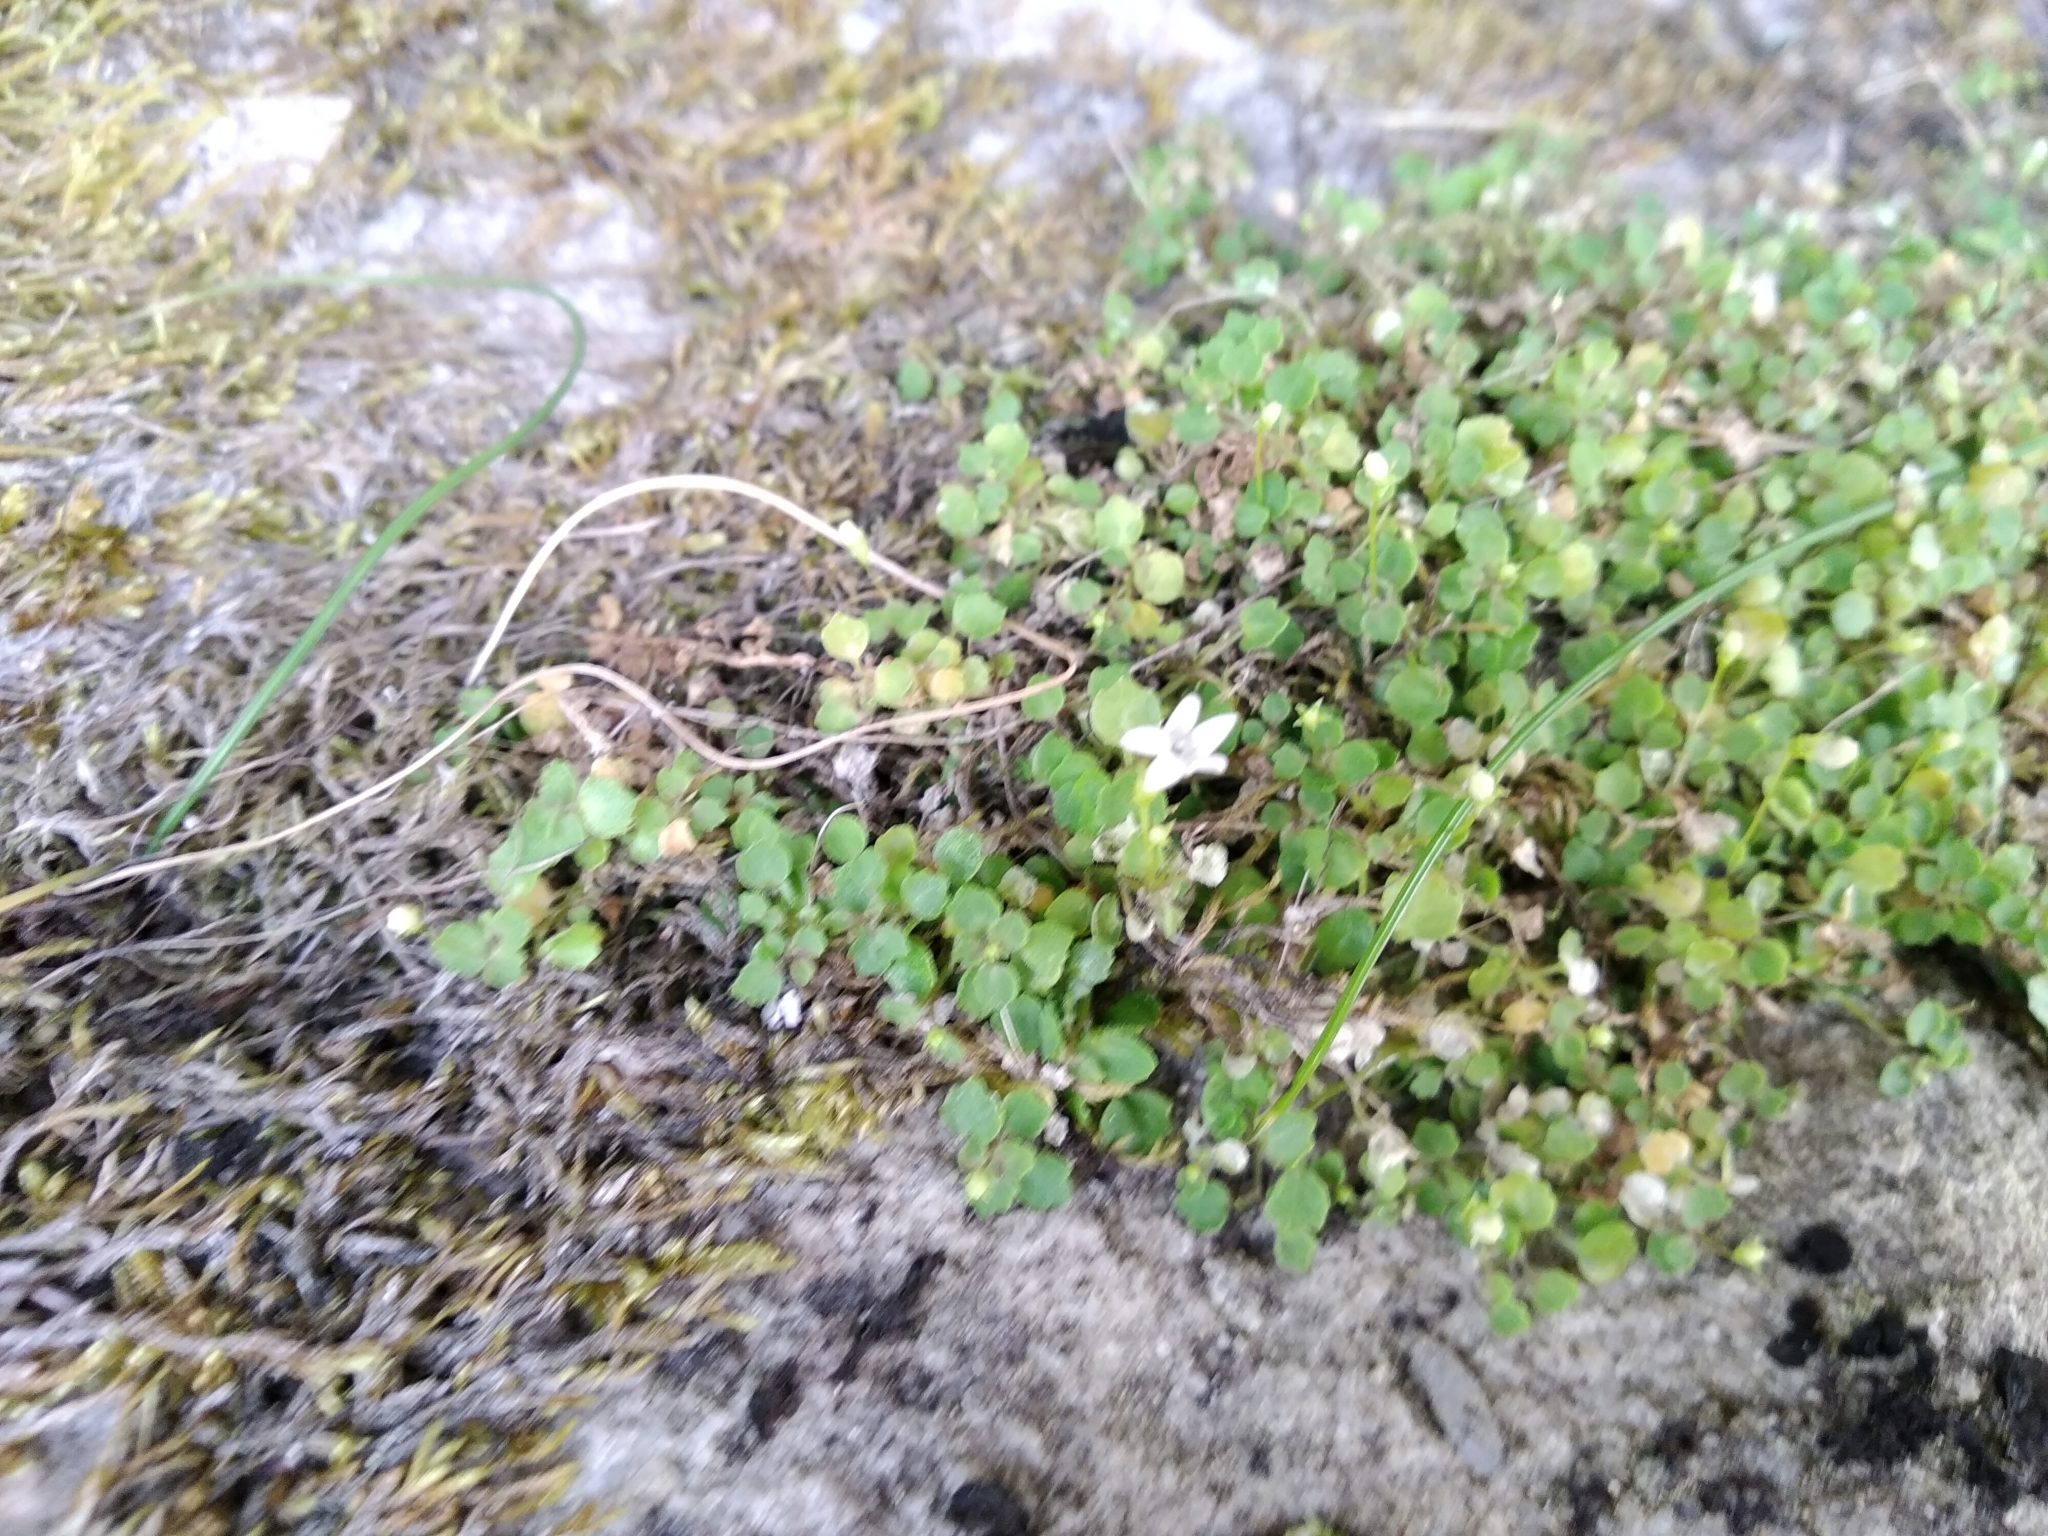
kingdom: Plantae
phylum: Tracheophyta
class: Magnoliopsida
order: Asterales
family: Campanulaceae
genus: Wimmerella
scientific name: Wimmerella pygmaea
